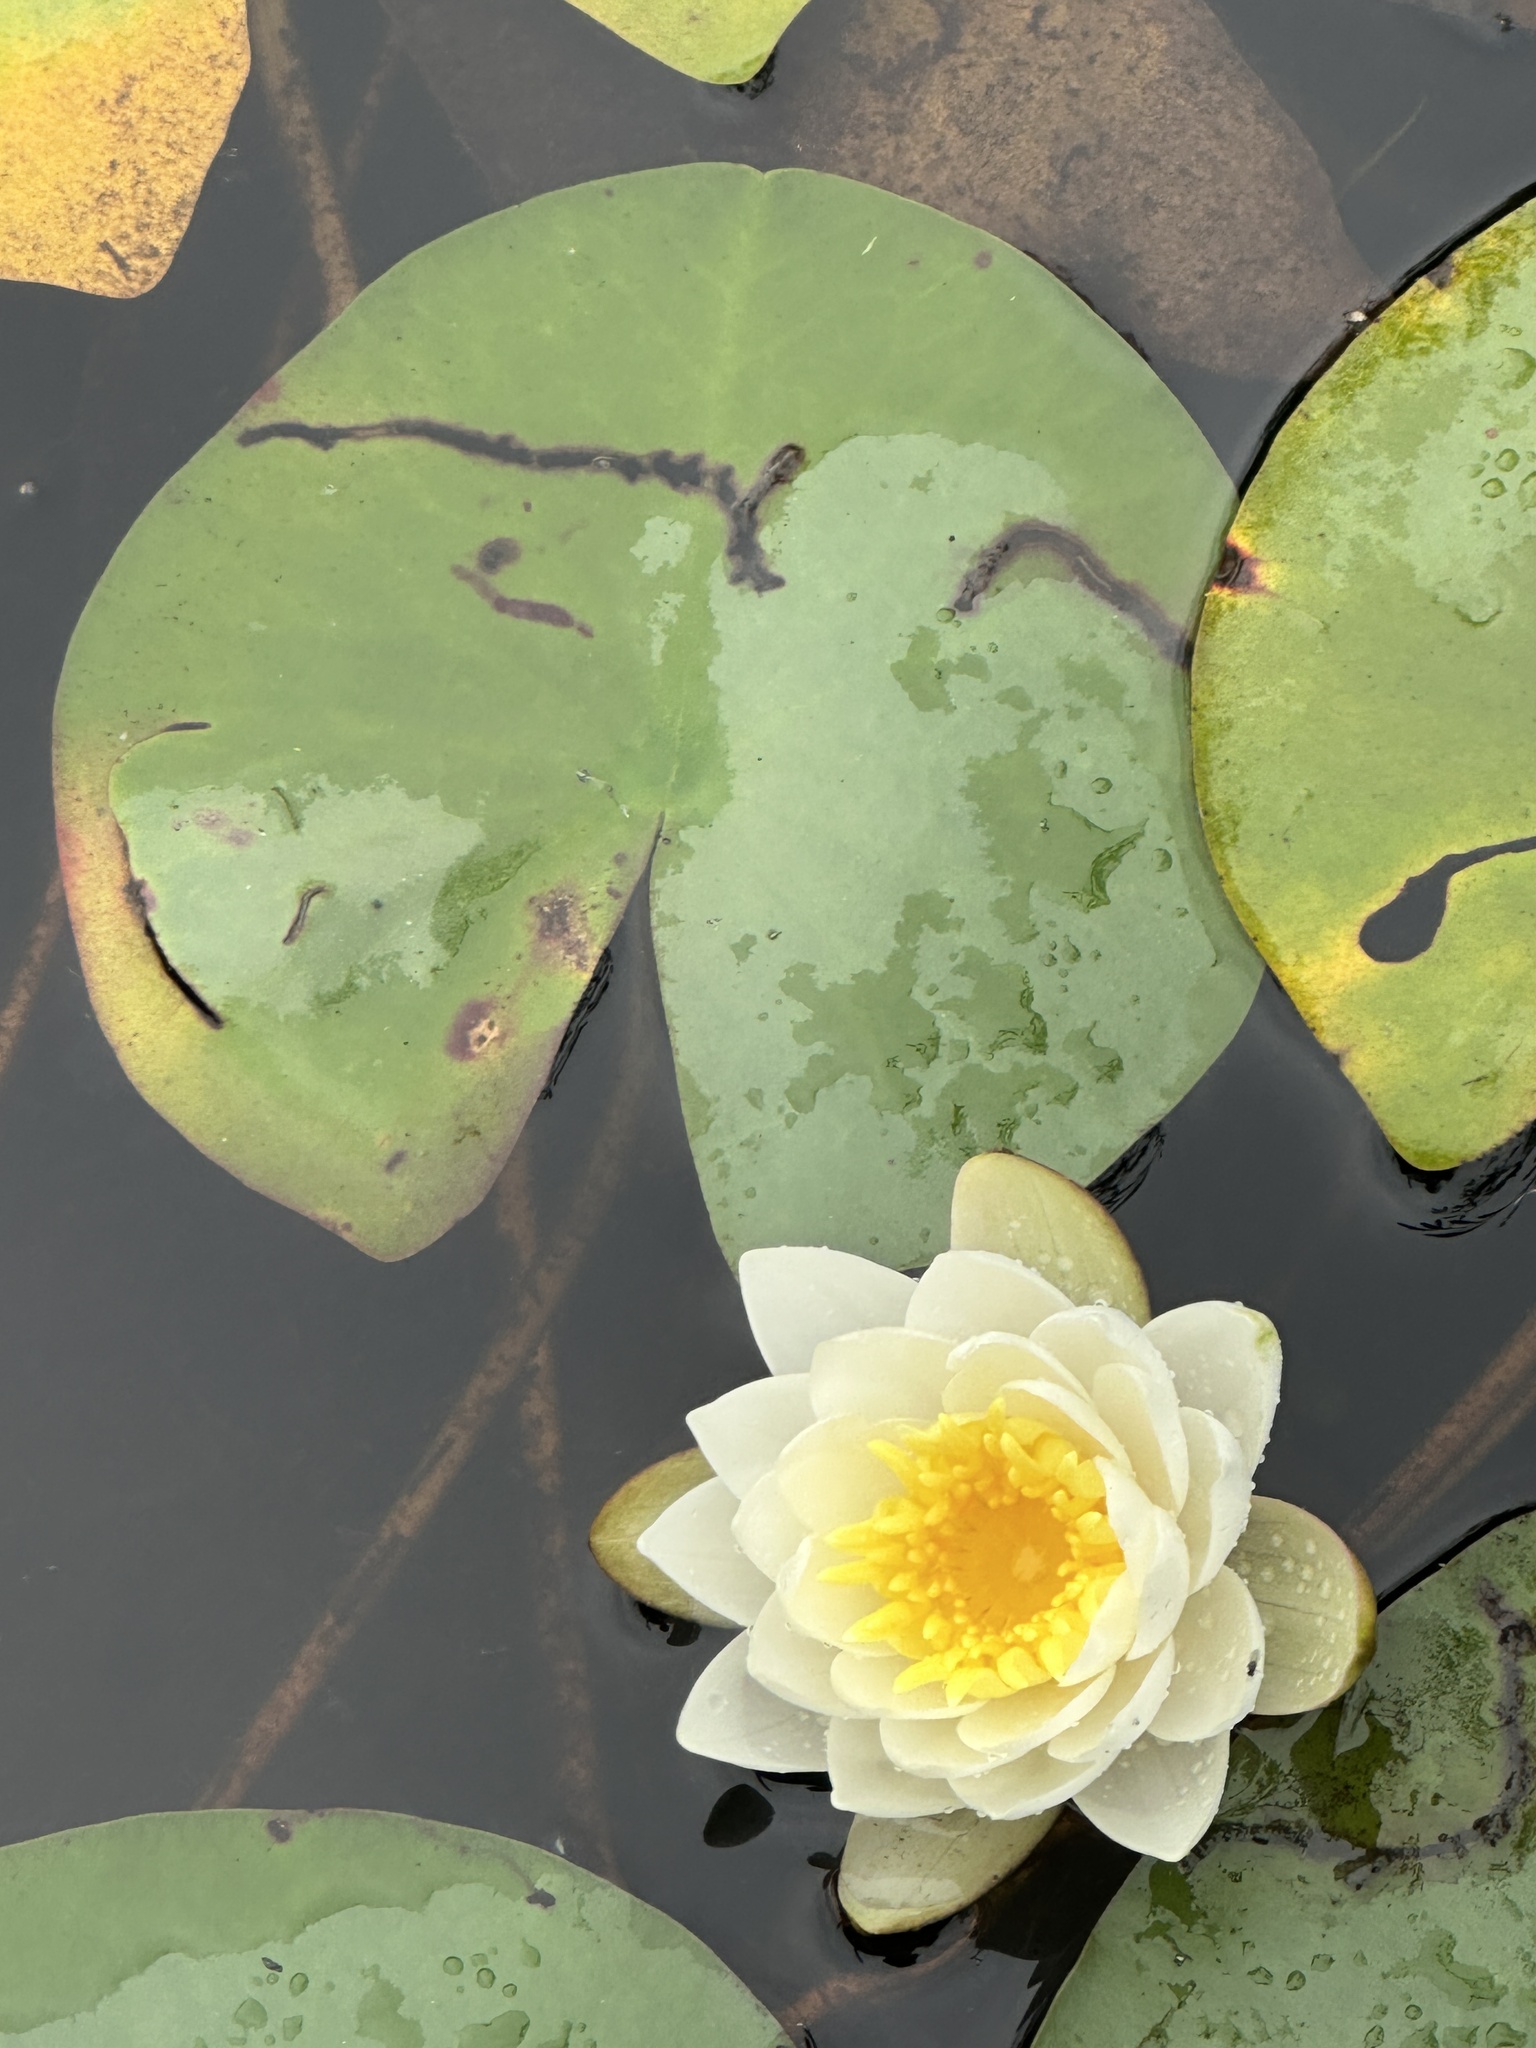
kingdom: Plantae
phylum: Tracheophyta
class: Magnoliopsida
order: Nymphaeales
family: Nymphaeaceae
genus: Nymphaea
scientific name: Nymphaea odorata
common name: Fragrant water-lily
